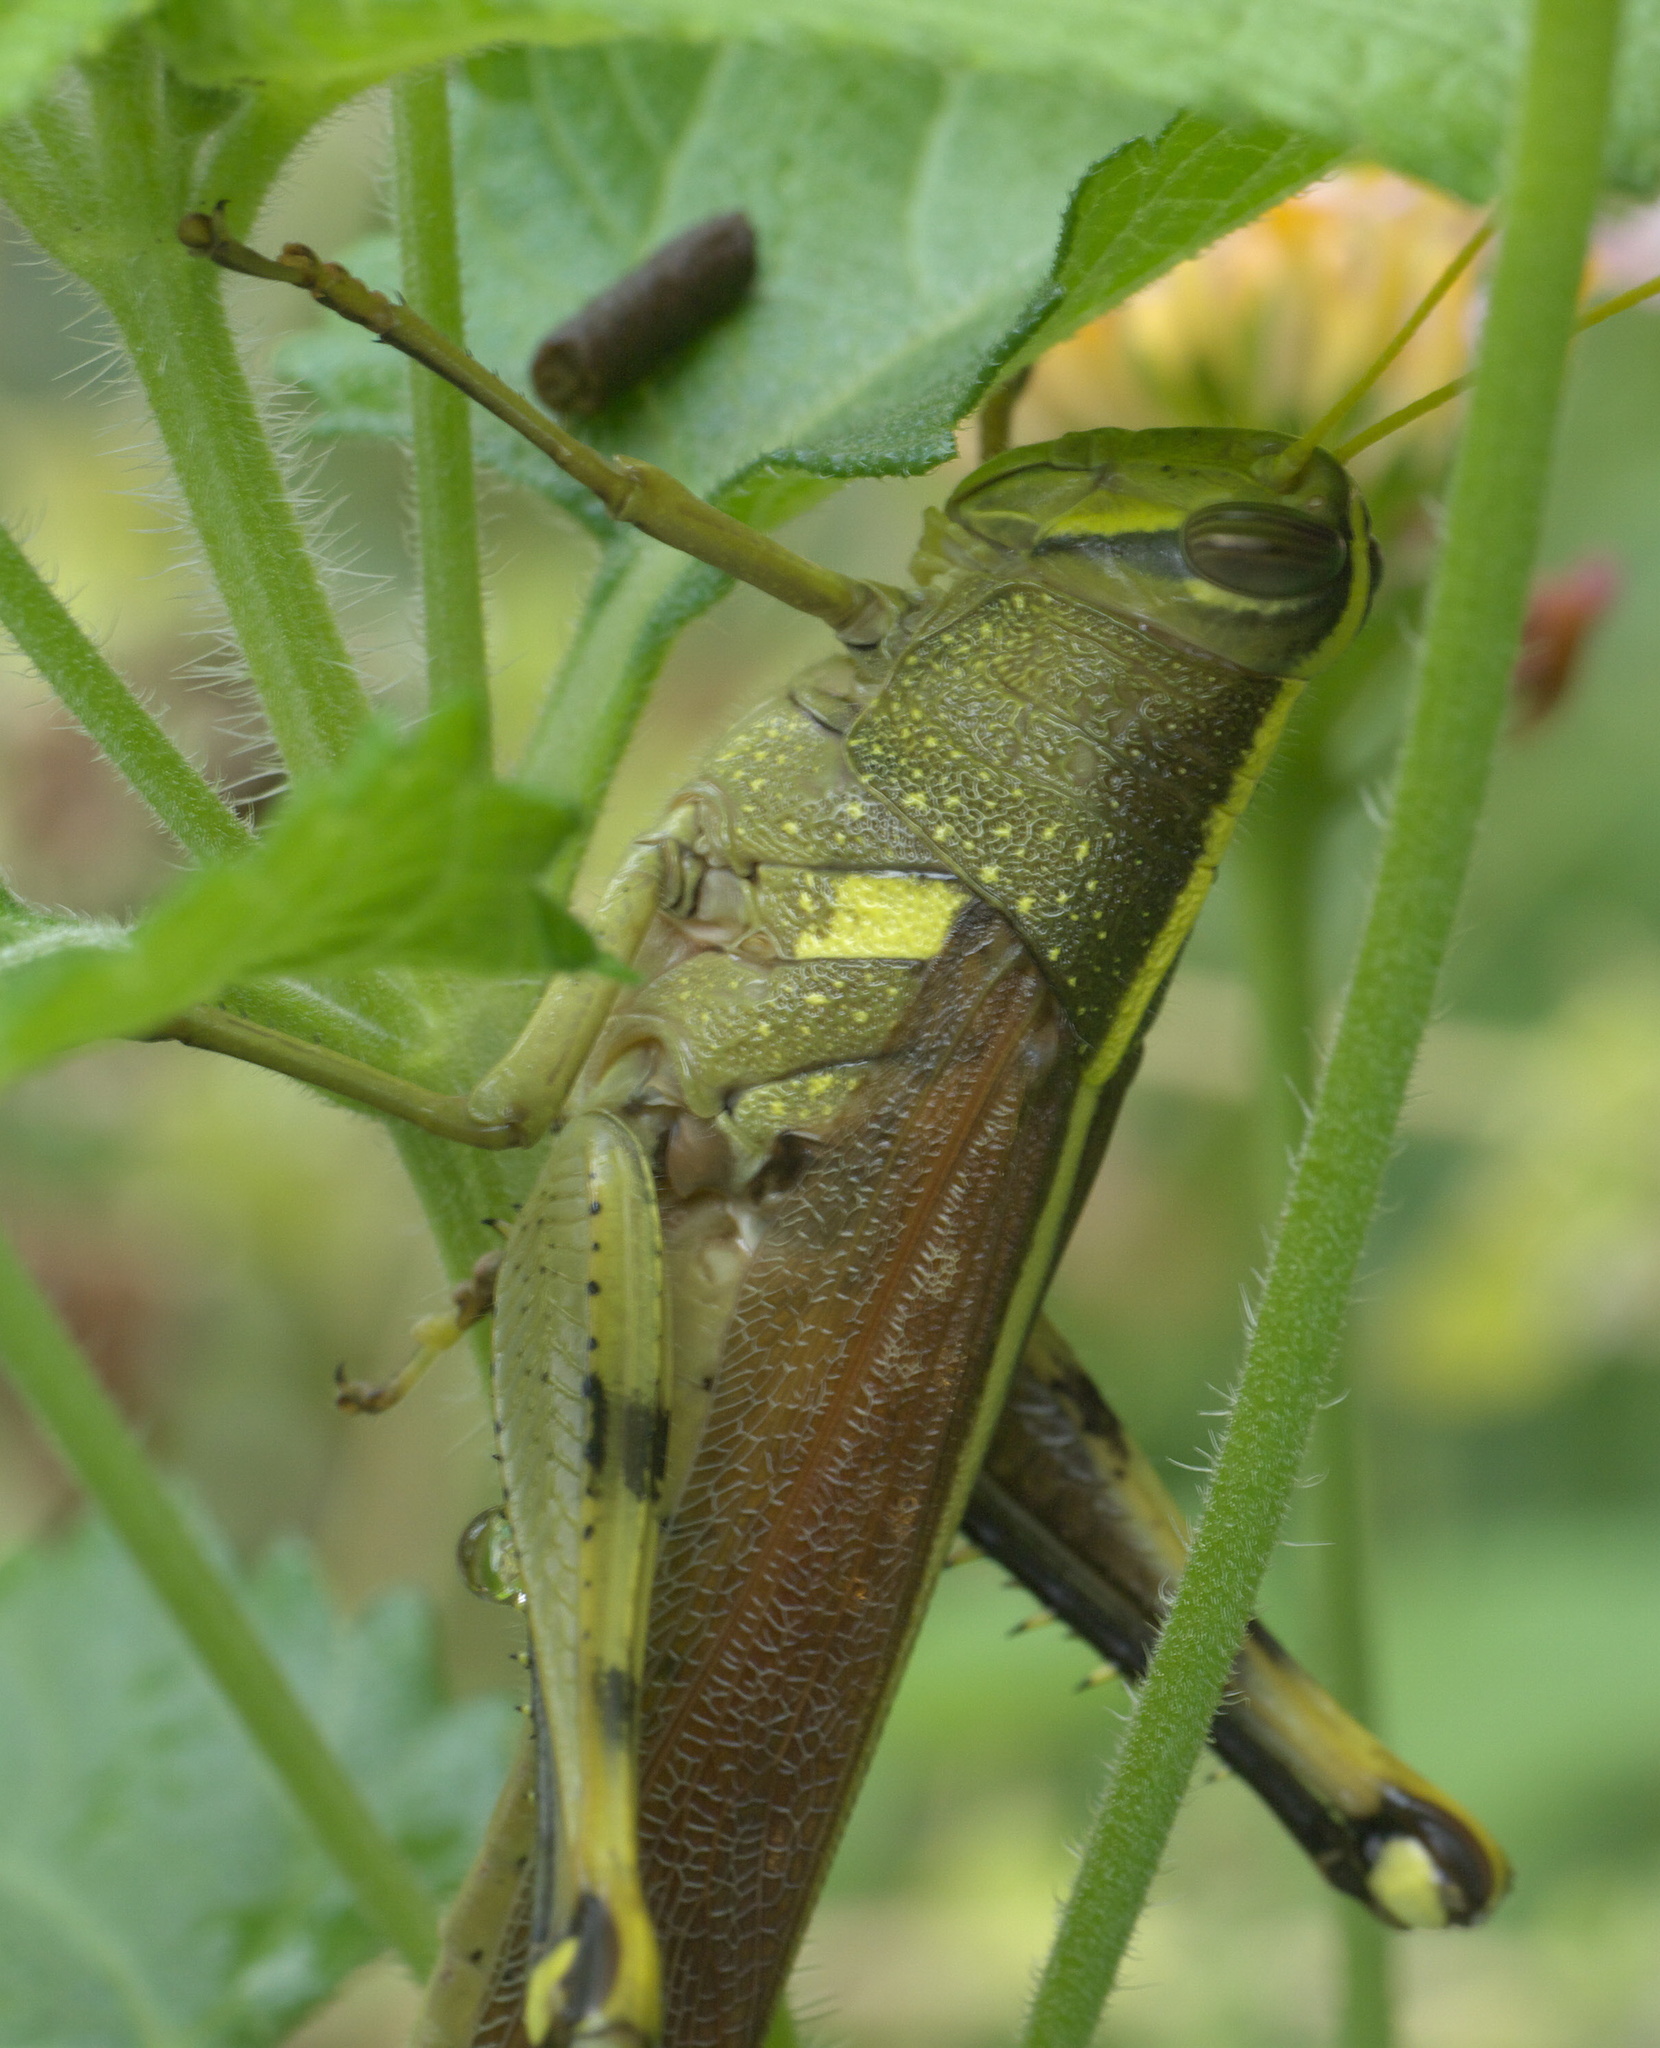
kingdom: Animalia
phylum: Arthropoda
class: Insecta
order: Orthoptera
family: Acrididae
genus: Schistocerca
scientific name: Schistocerca obscura
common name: Obscure bird grasshopper
